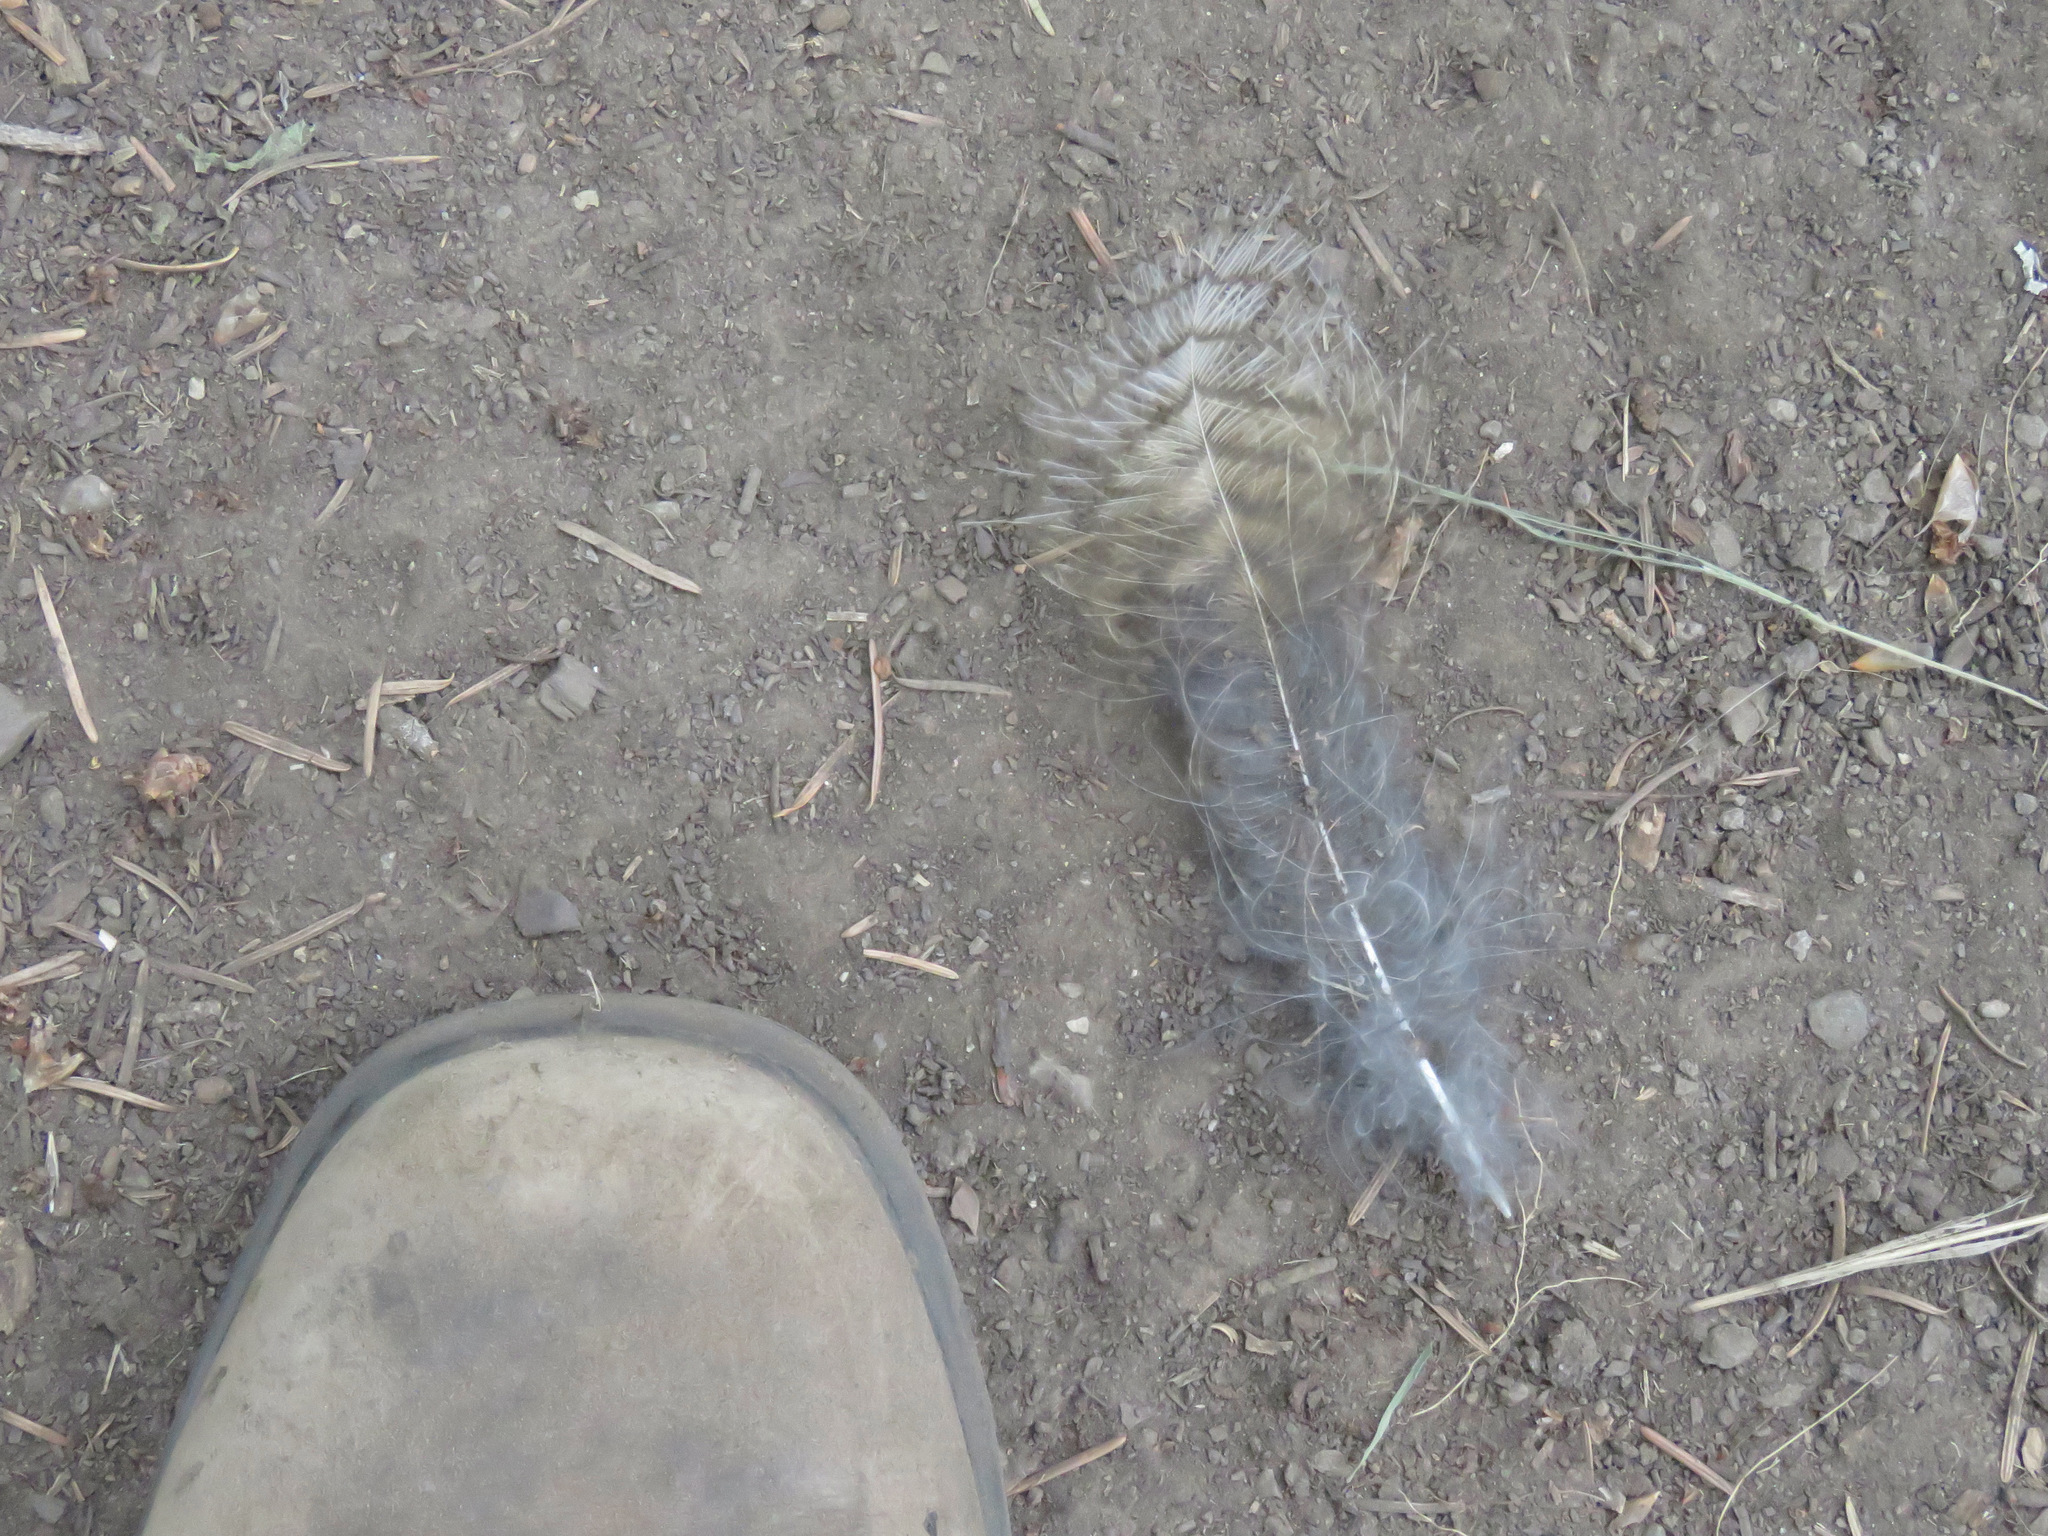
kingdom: Animalia
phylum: Chordata
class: Aves
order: Strigiformes
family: Strigidae
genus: Bubo
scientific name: Bubo virginianus
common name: Great horned owl
